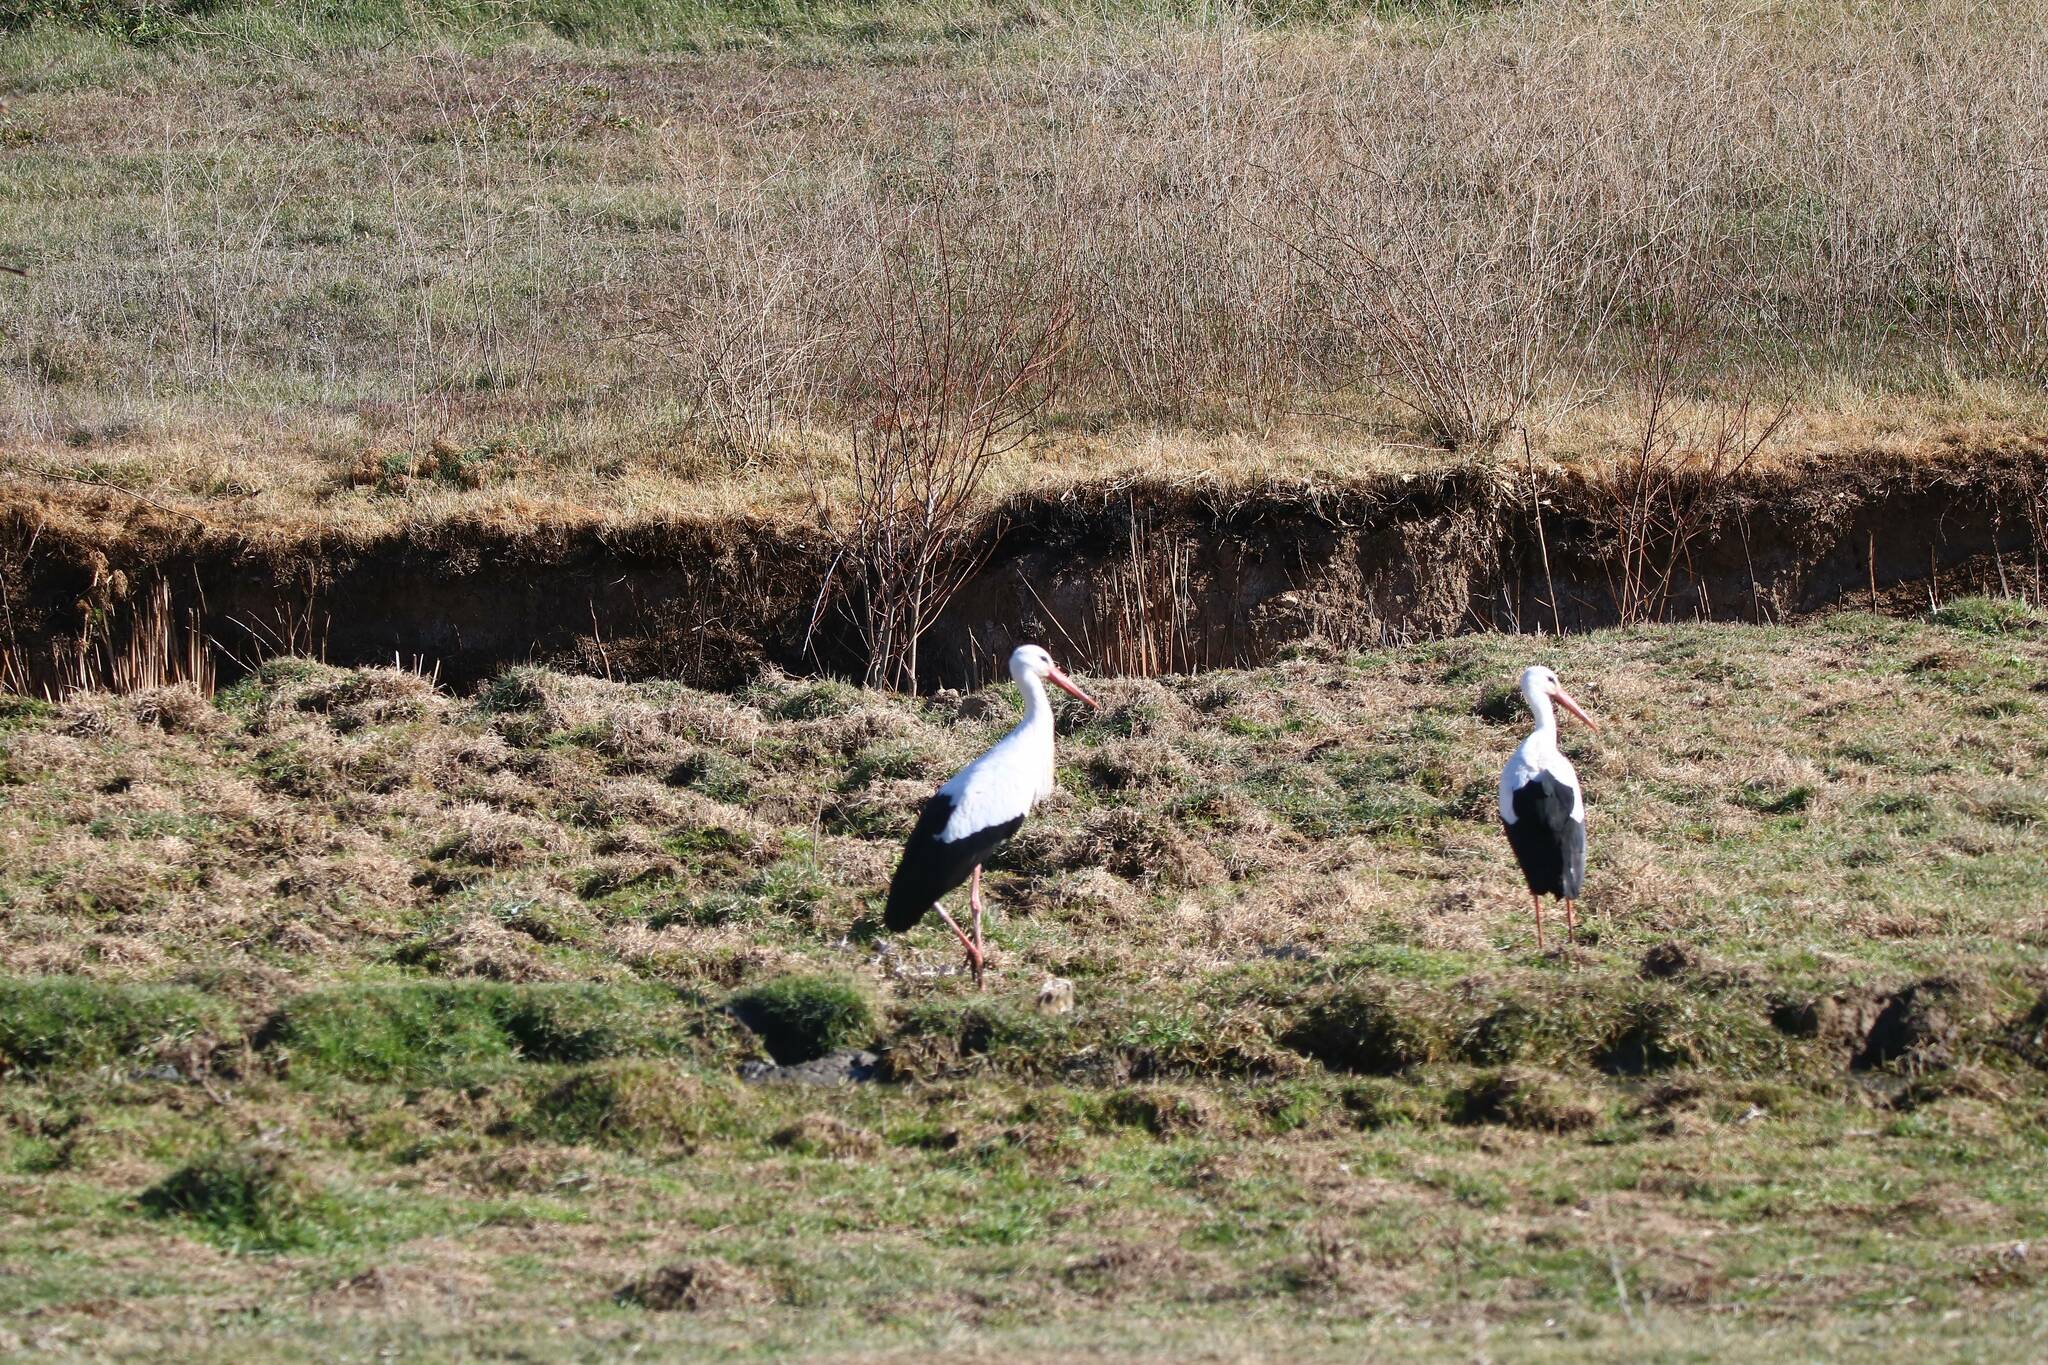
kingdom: Animalia
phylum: Chordata
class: Aves
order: Ciconiiformes
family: Ciconiidae
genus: Ciconia
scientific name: Ciconia ciconia
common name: White stork
